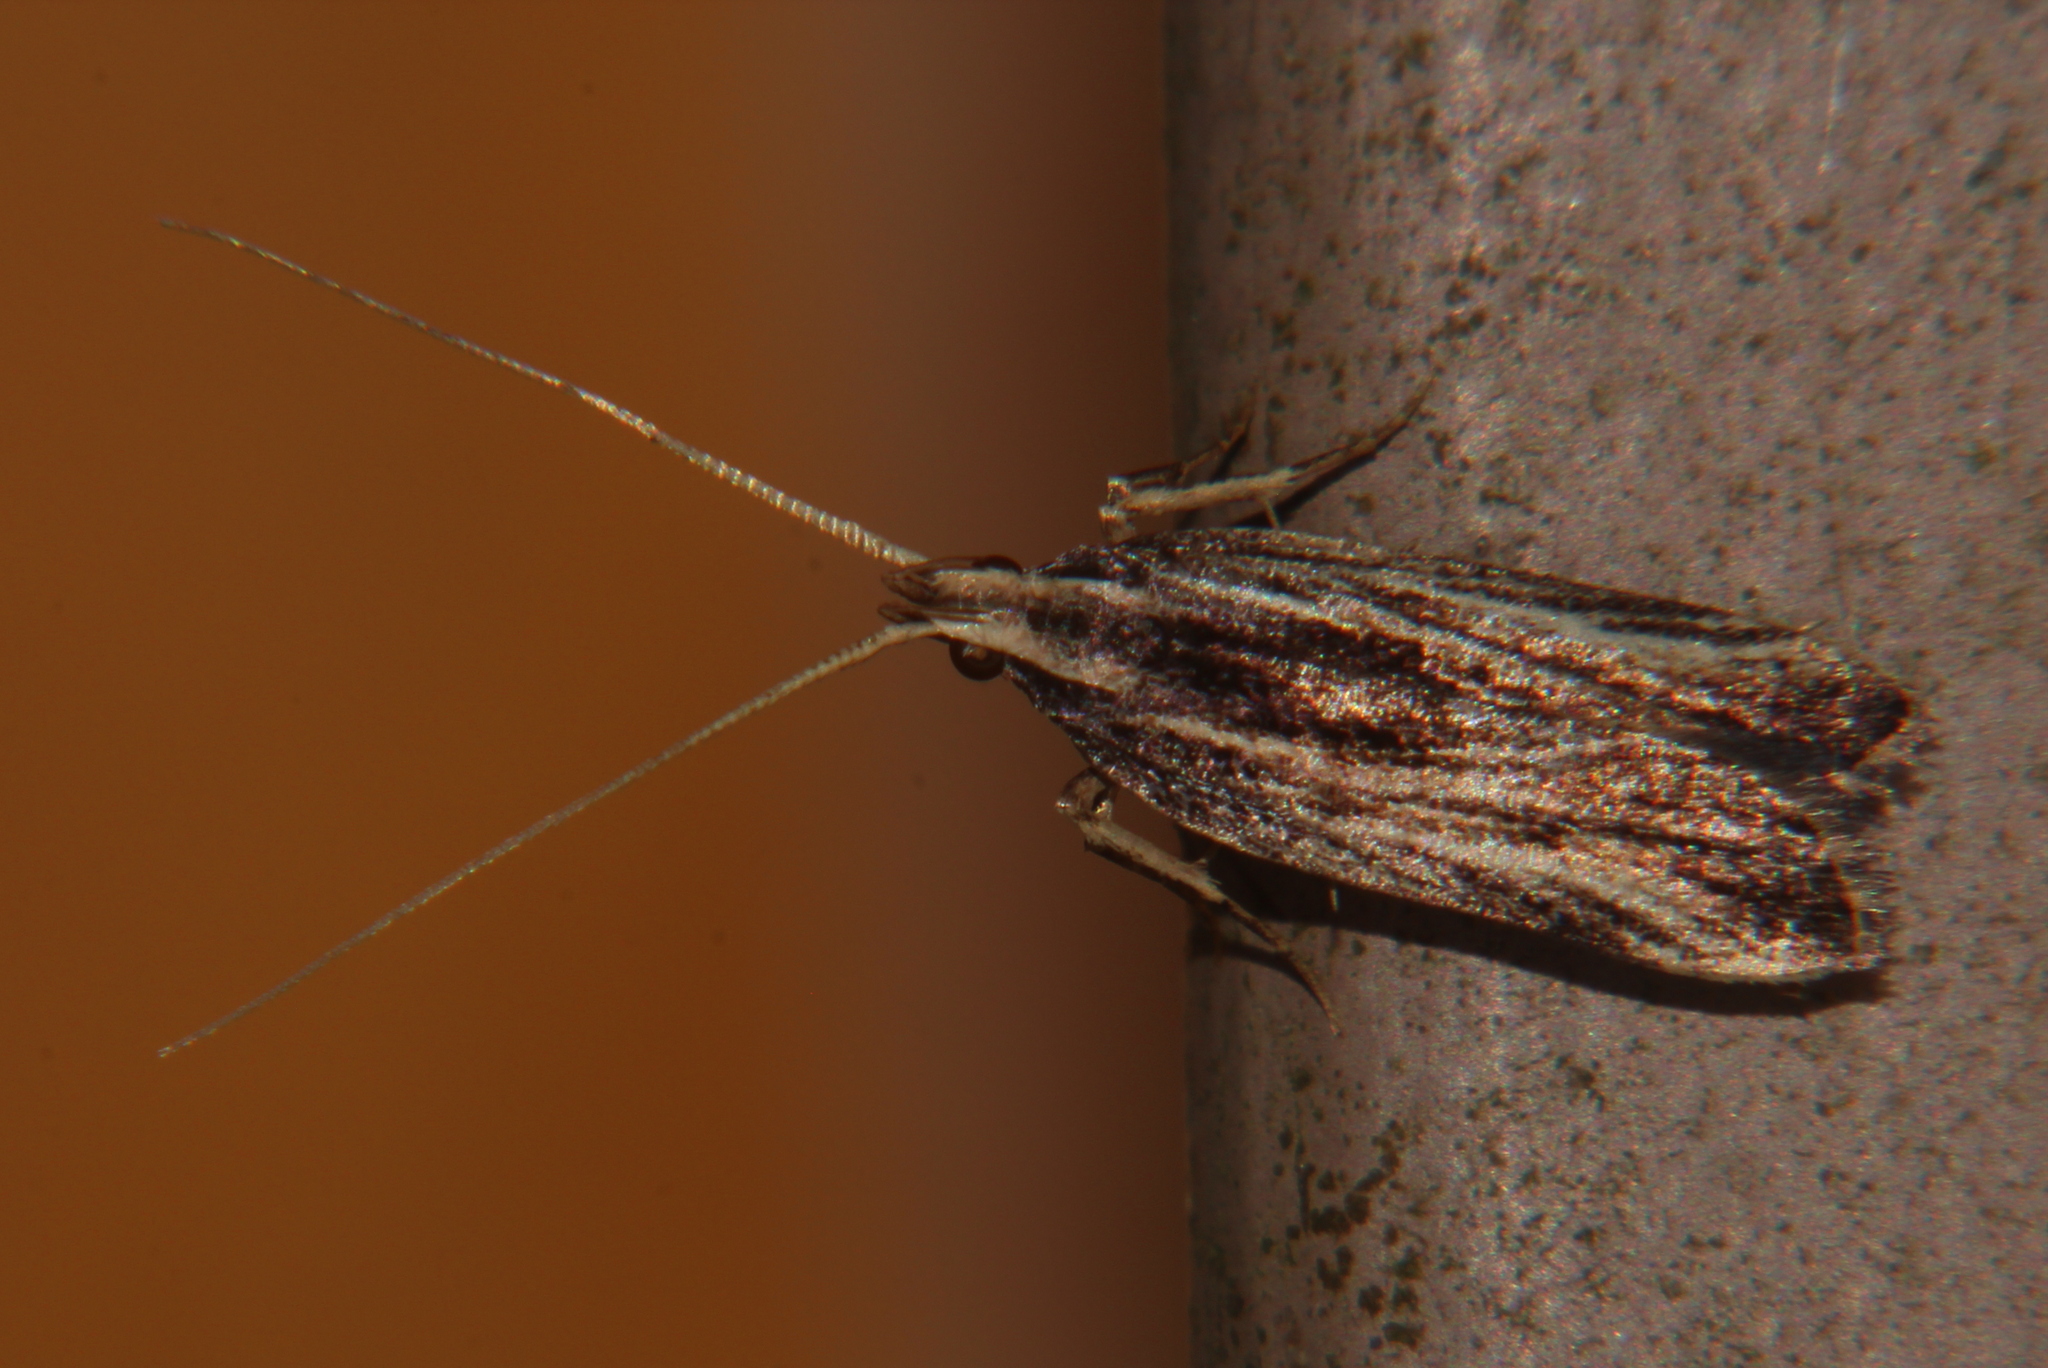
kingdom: Animalia
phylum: Arthropoda
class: Insecta
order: Lepidoptera
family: Lecithoceridae
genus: Sarisophora
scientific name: Sarisophora leucoscia
